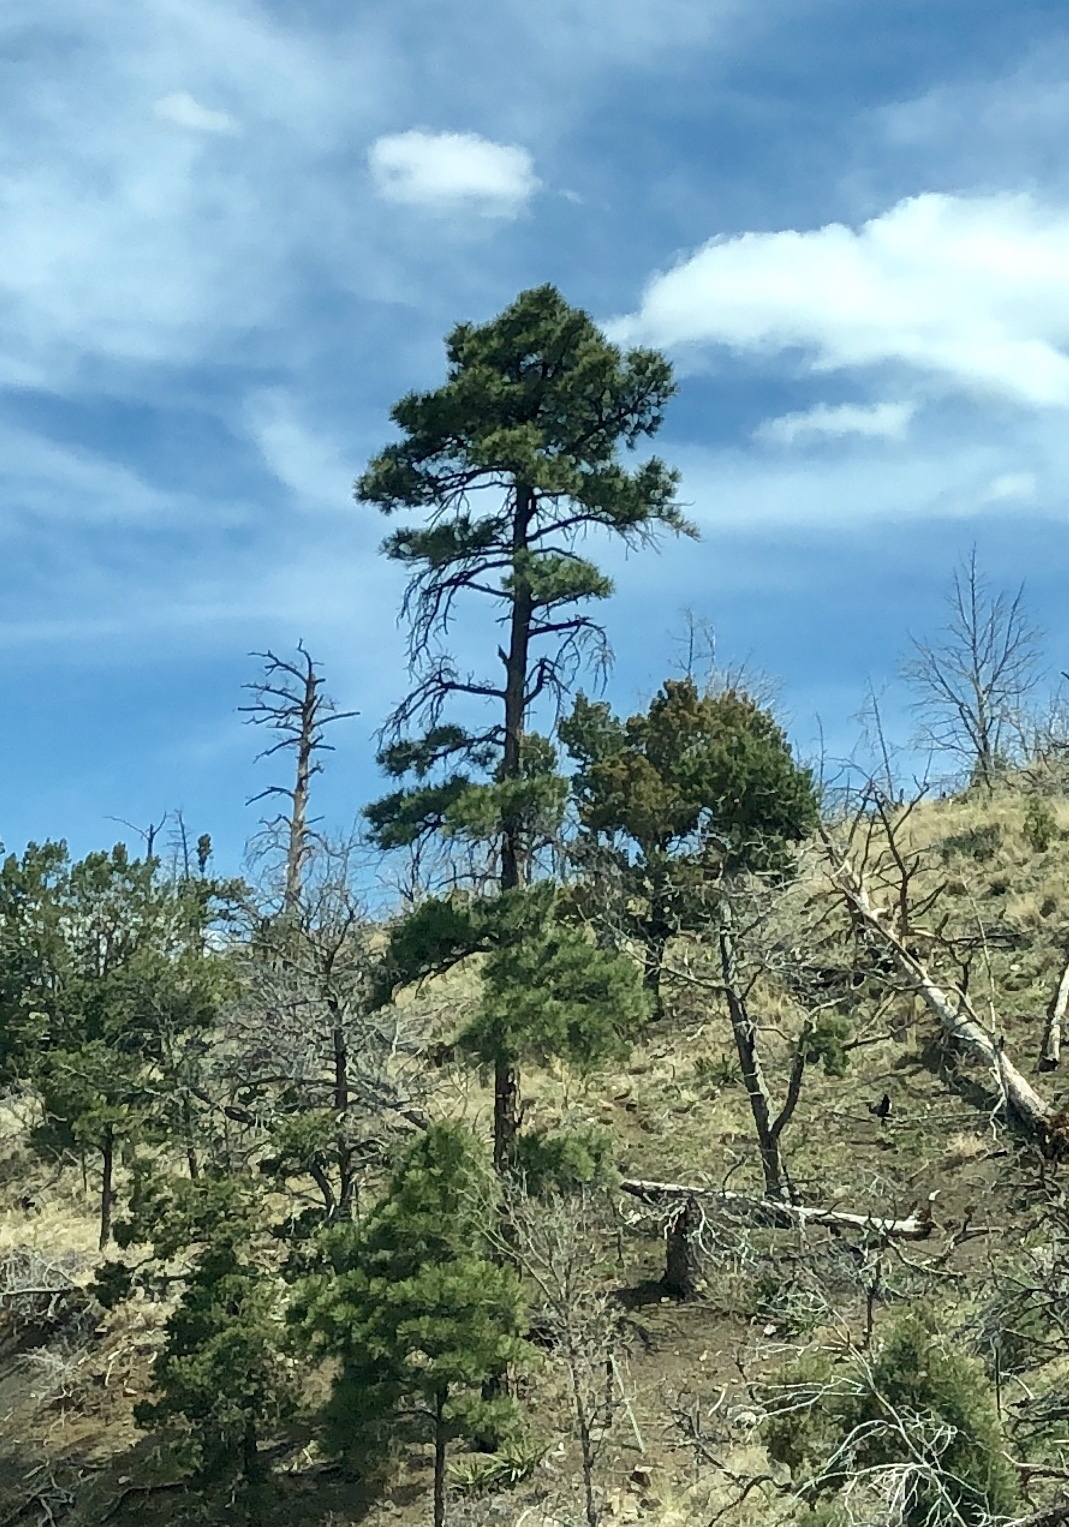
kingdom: Plantae
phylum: Tracheophyta
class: Pinopsida
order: Pinales
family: Pinaceae
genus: Pinus
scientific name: Pinus ponderosa
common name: Western yellow-pine
